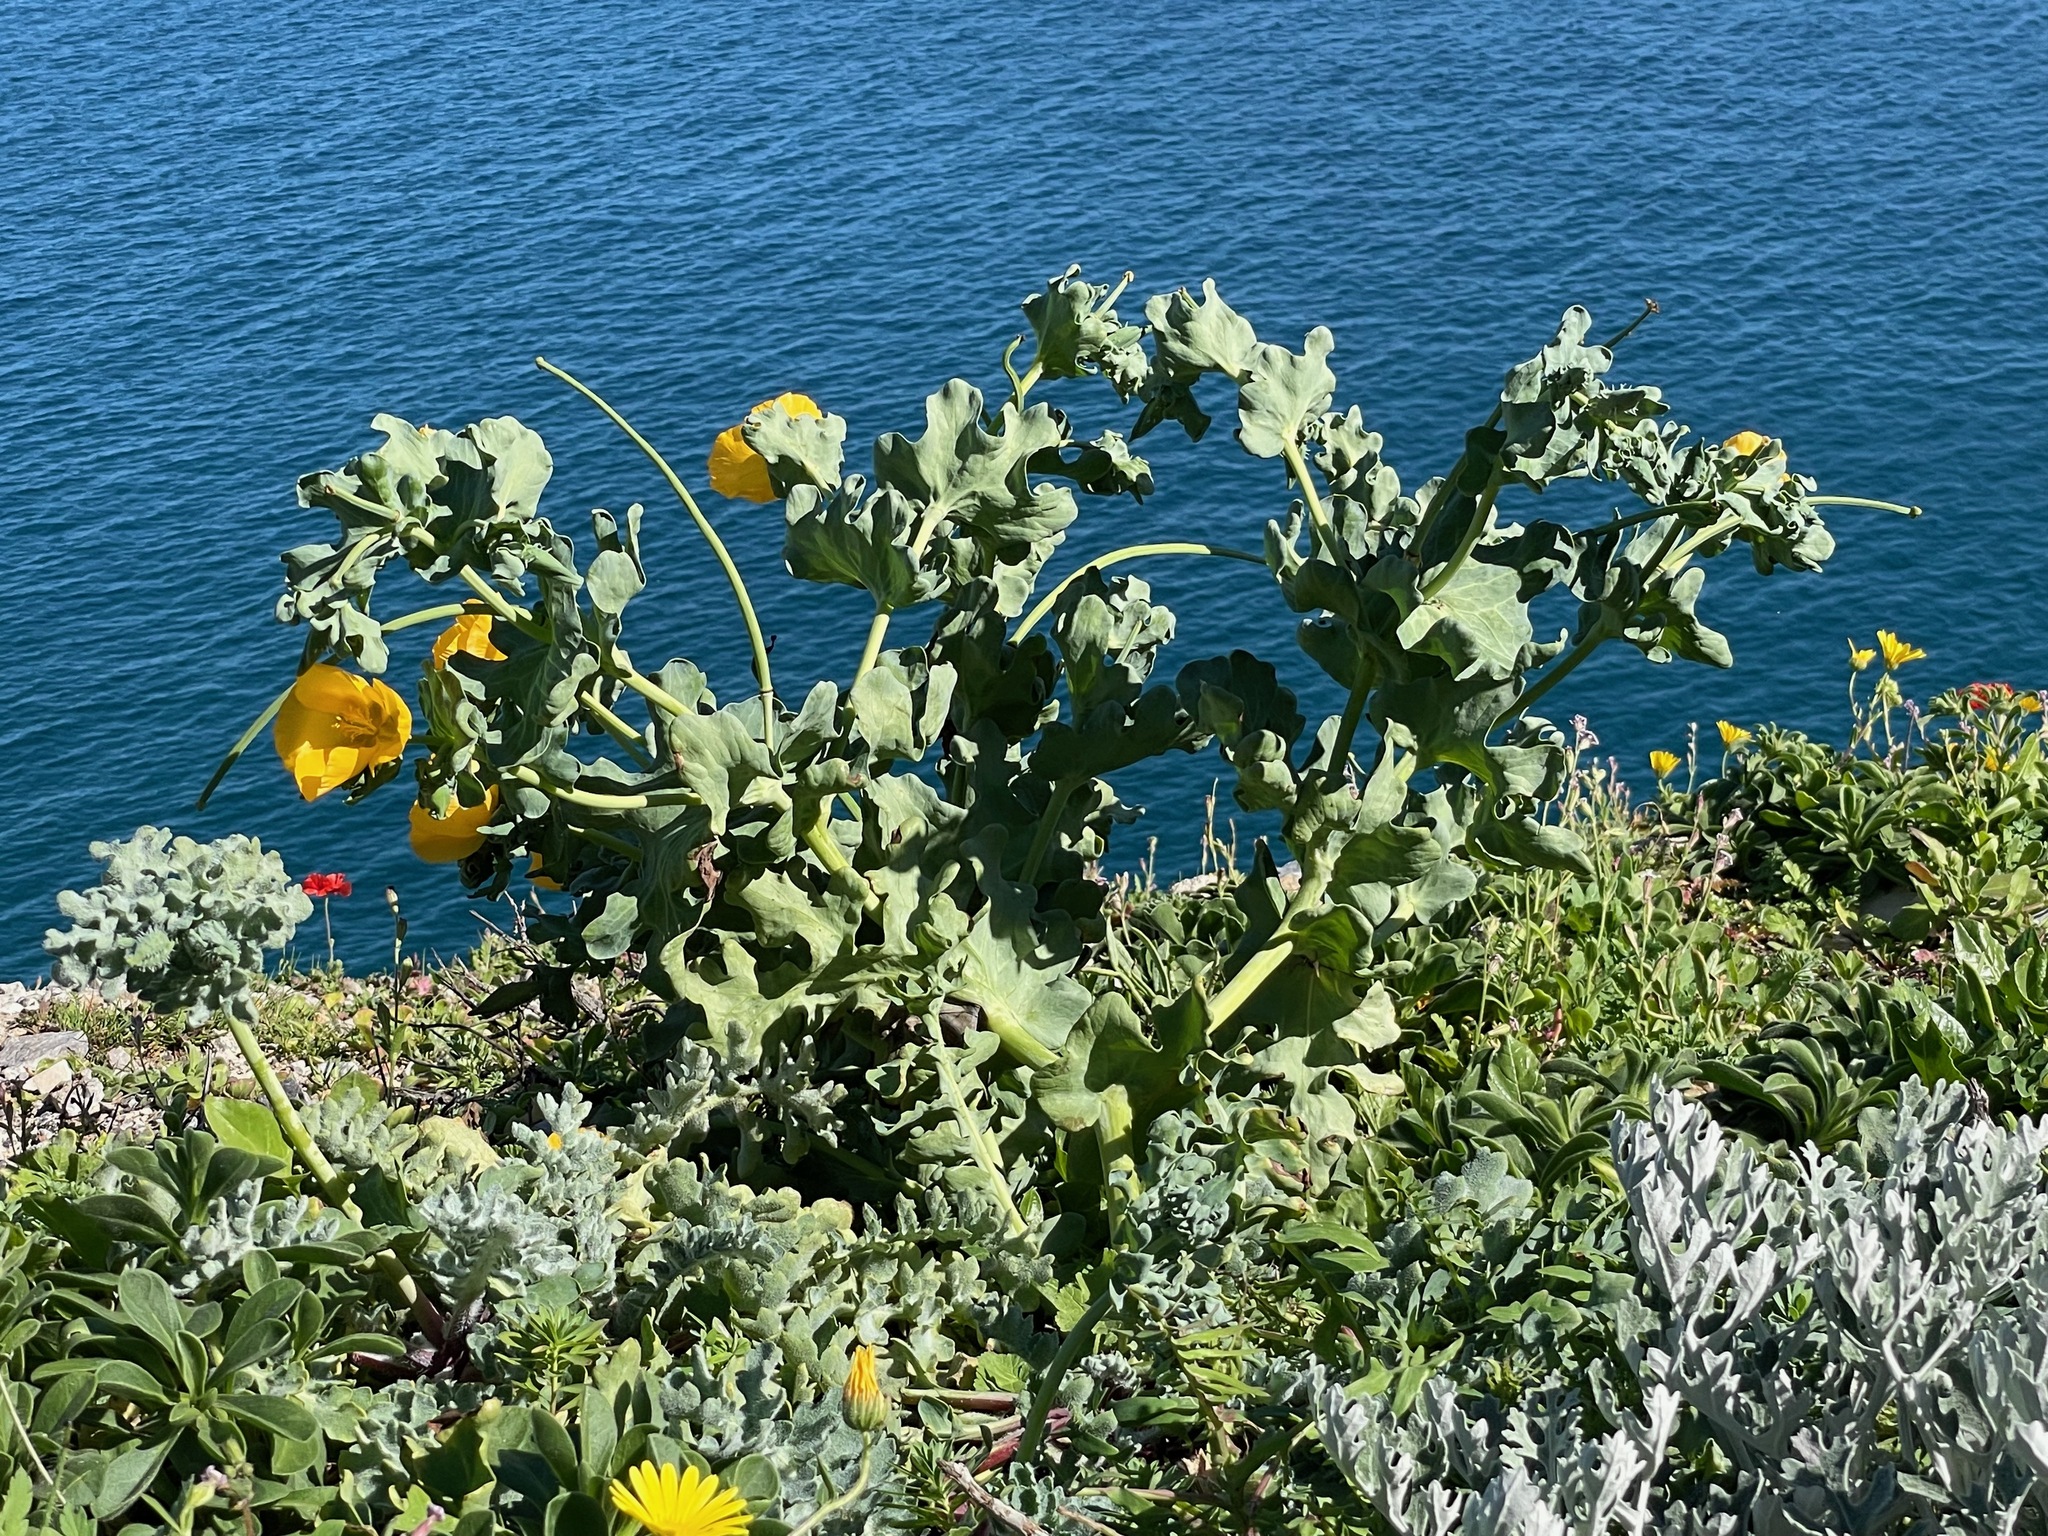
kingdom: Plantae
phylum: Tracheophyta
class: Magnoliopsida
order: Ranunculales
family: Papaveraceae
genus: Glaucium
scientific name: Glaucium flavum
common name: Yellow horned-poppy
